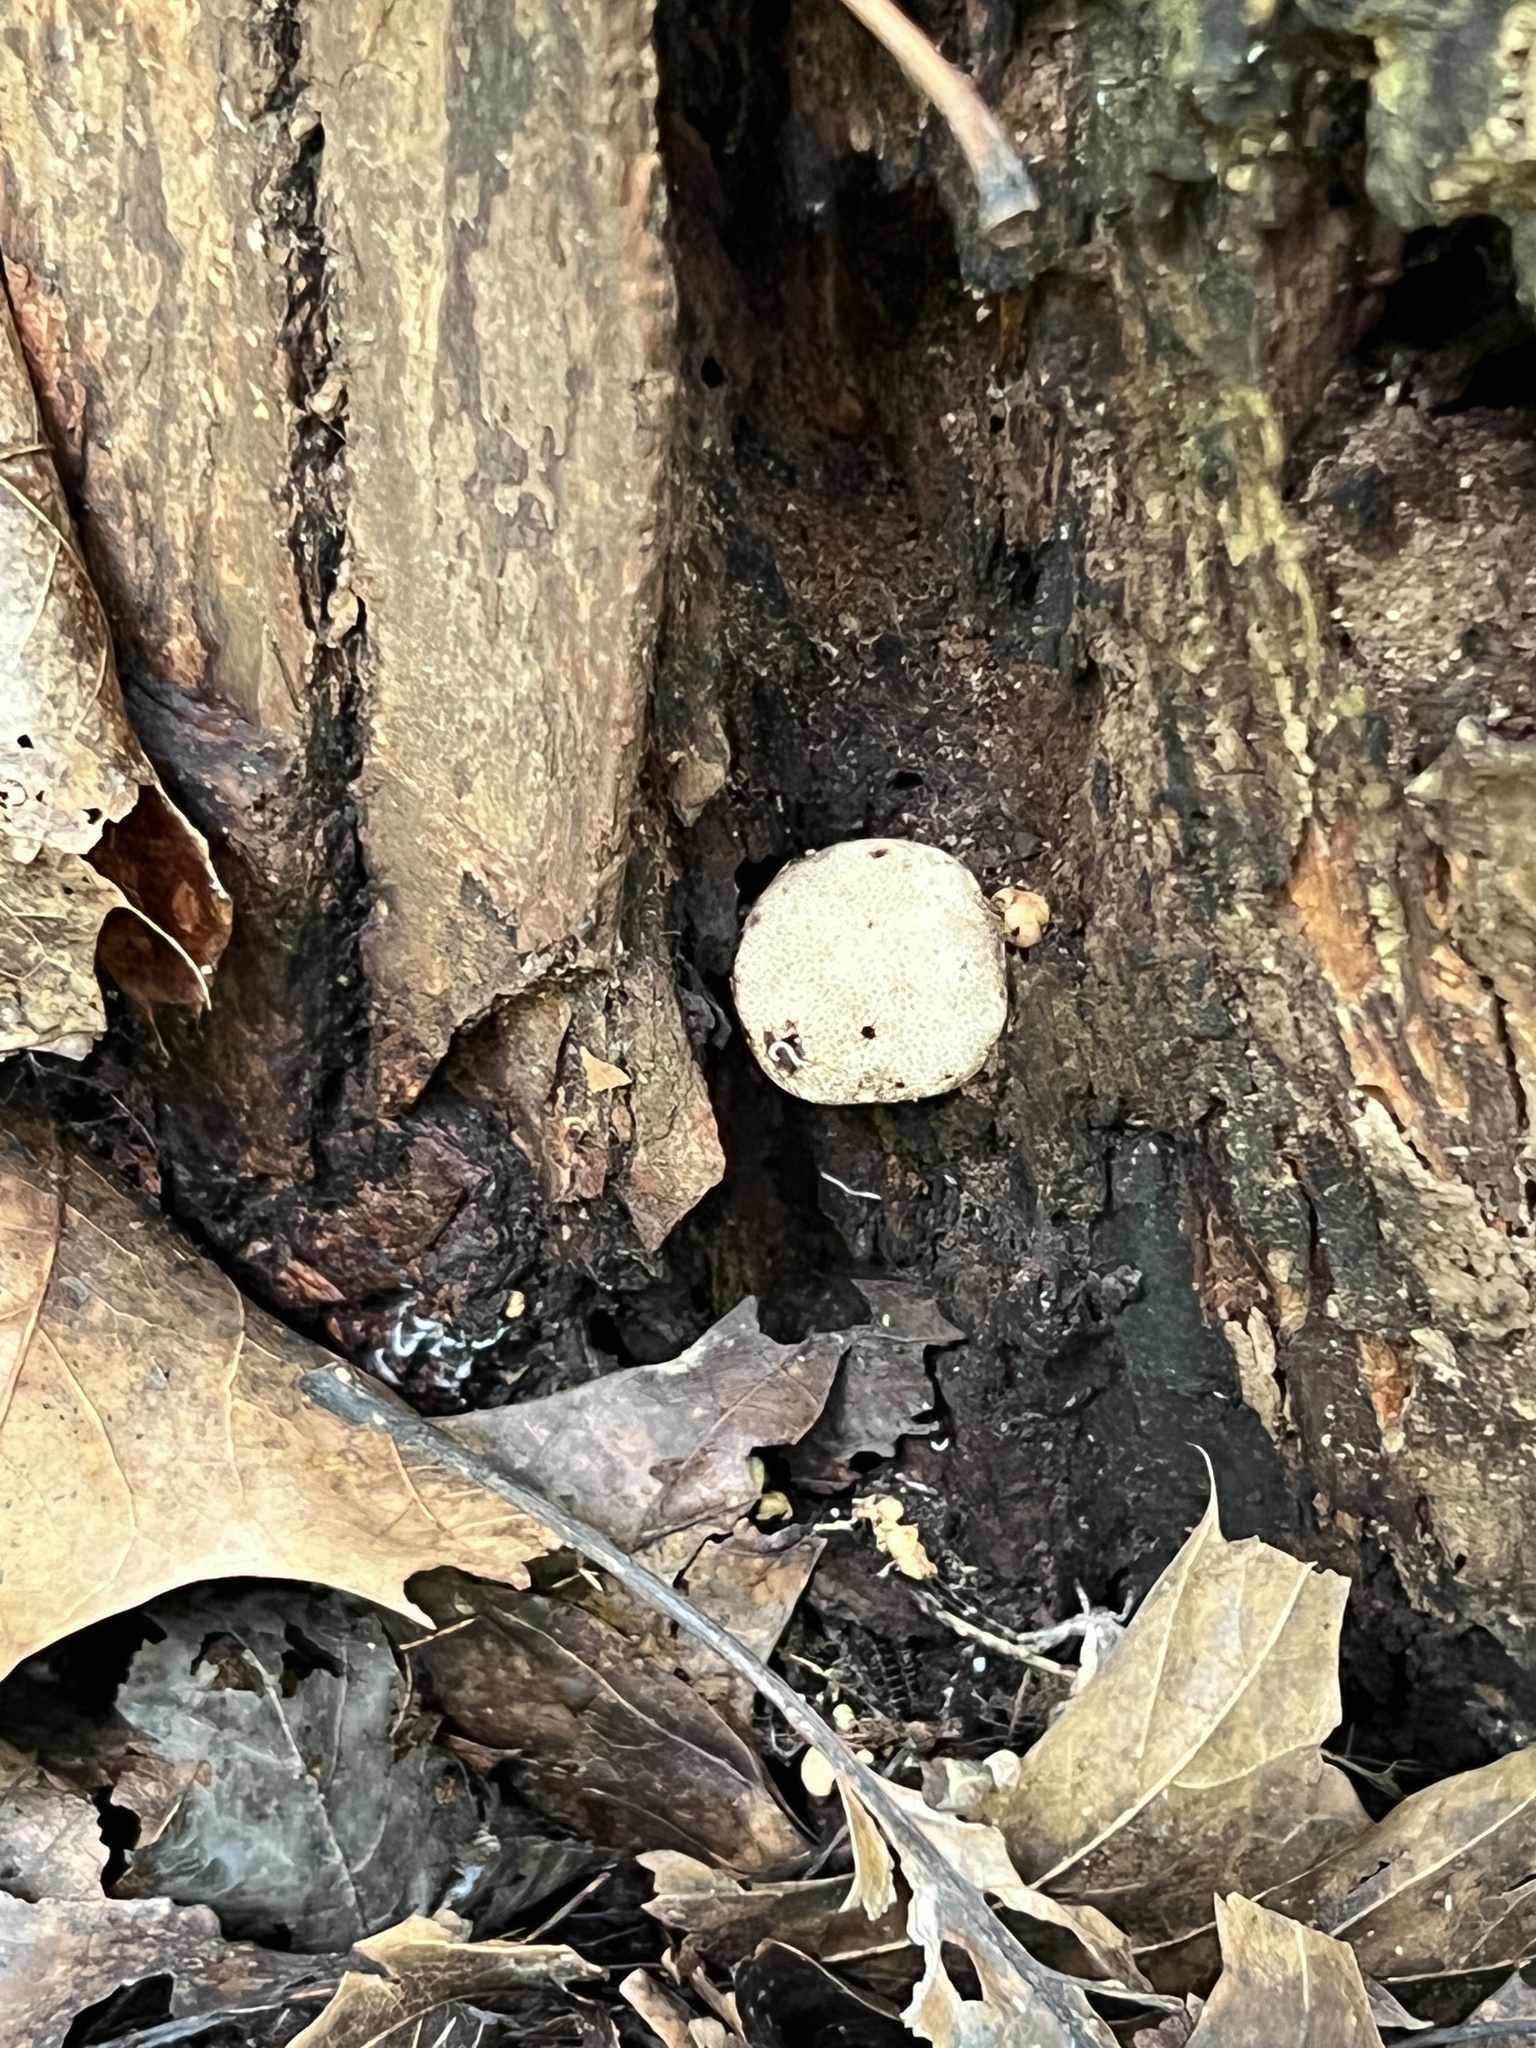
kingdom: Fungi
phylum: Basidiomycota
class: Agaricomycetes
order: Boletales
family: Sclerodermataceae
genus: Scleroderma
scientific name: Scleroderma areolatum
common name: Leopard earthball
